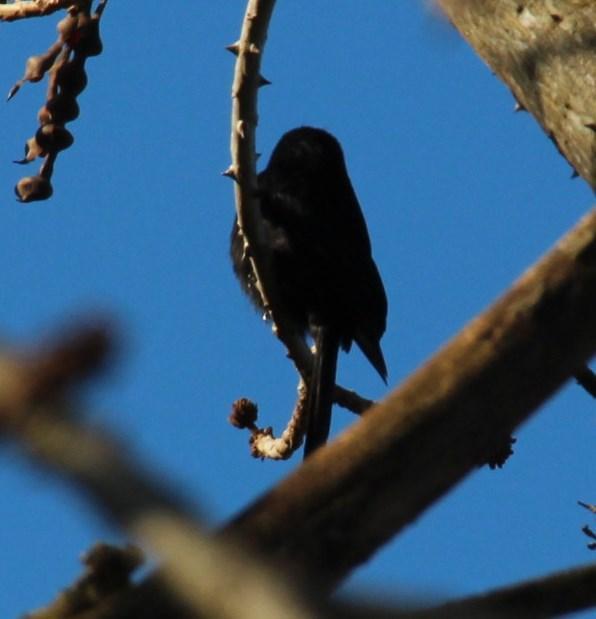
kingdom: Animalia
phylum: Chordata
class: Aves
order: Passeriformes
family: Dicruridae
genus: Dicrurus
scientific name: Dicrurus adsimilis
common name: Fork-tailed drongo
